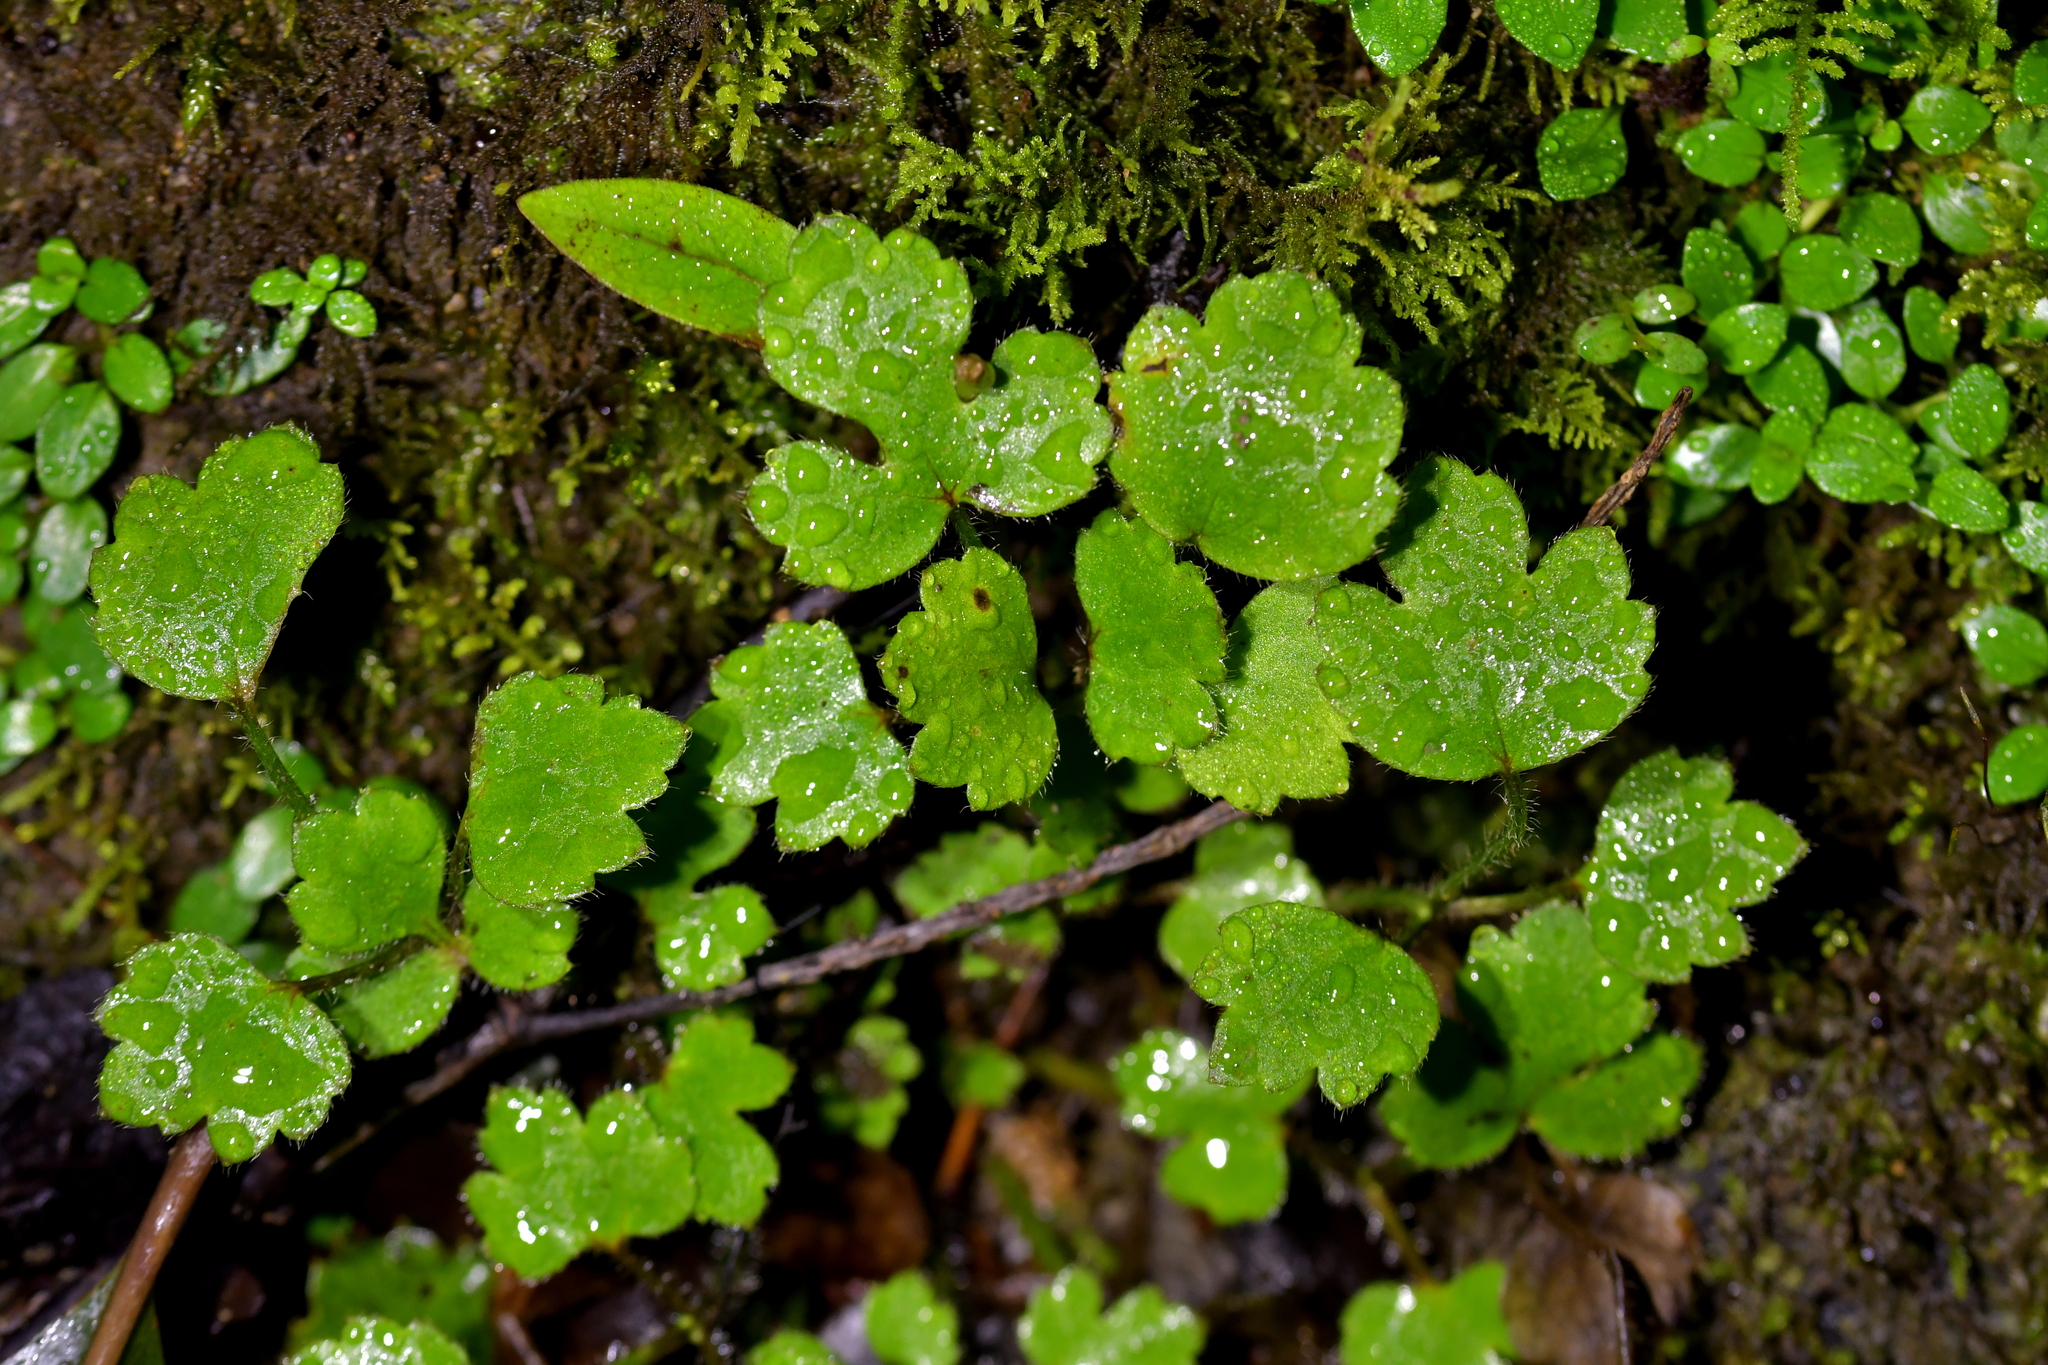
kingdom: Plantae
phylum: Tracheophyta
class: Magnoliopsida
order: Ranunculales
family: Ranunculaceae
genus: Ranunculus
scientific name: Ranunculus reflexus
